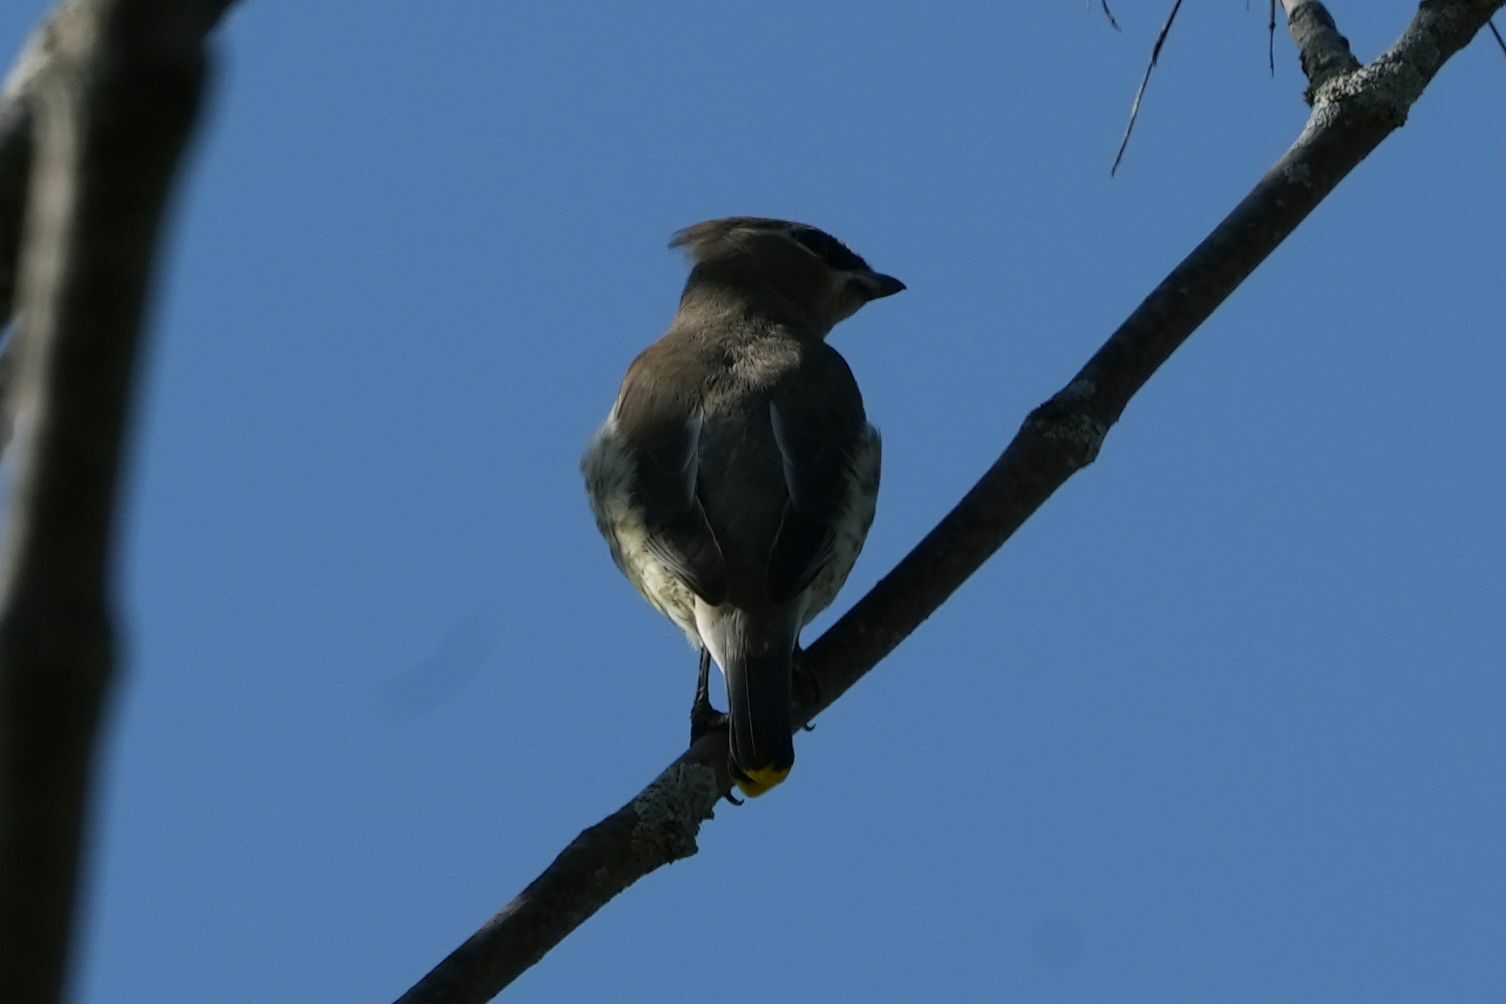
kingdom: Animalia
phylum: Chordata
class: Aves
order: Passeriformes
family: Bombycillidae
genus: Bombycilla
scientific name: Bombycilla cedrorum
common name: Cedar waxwing
